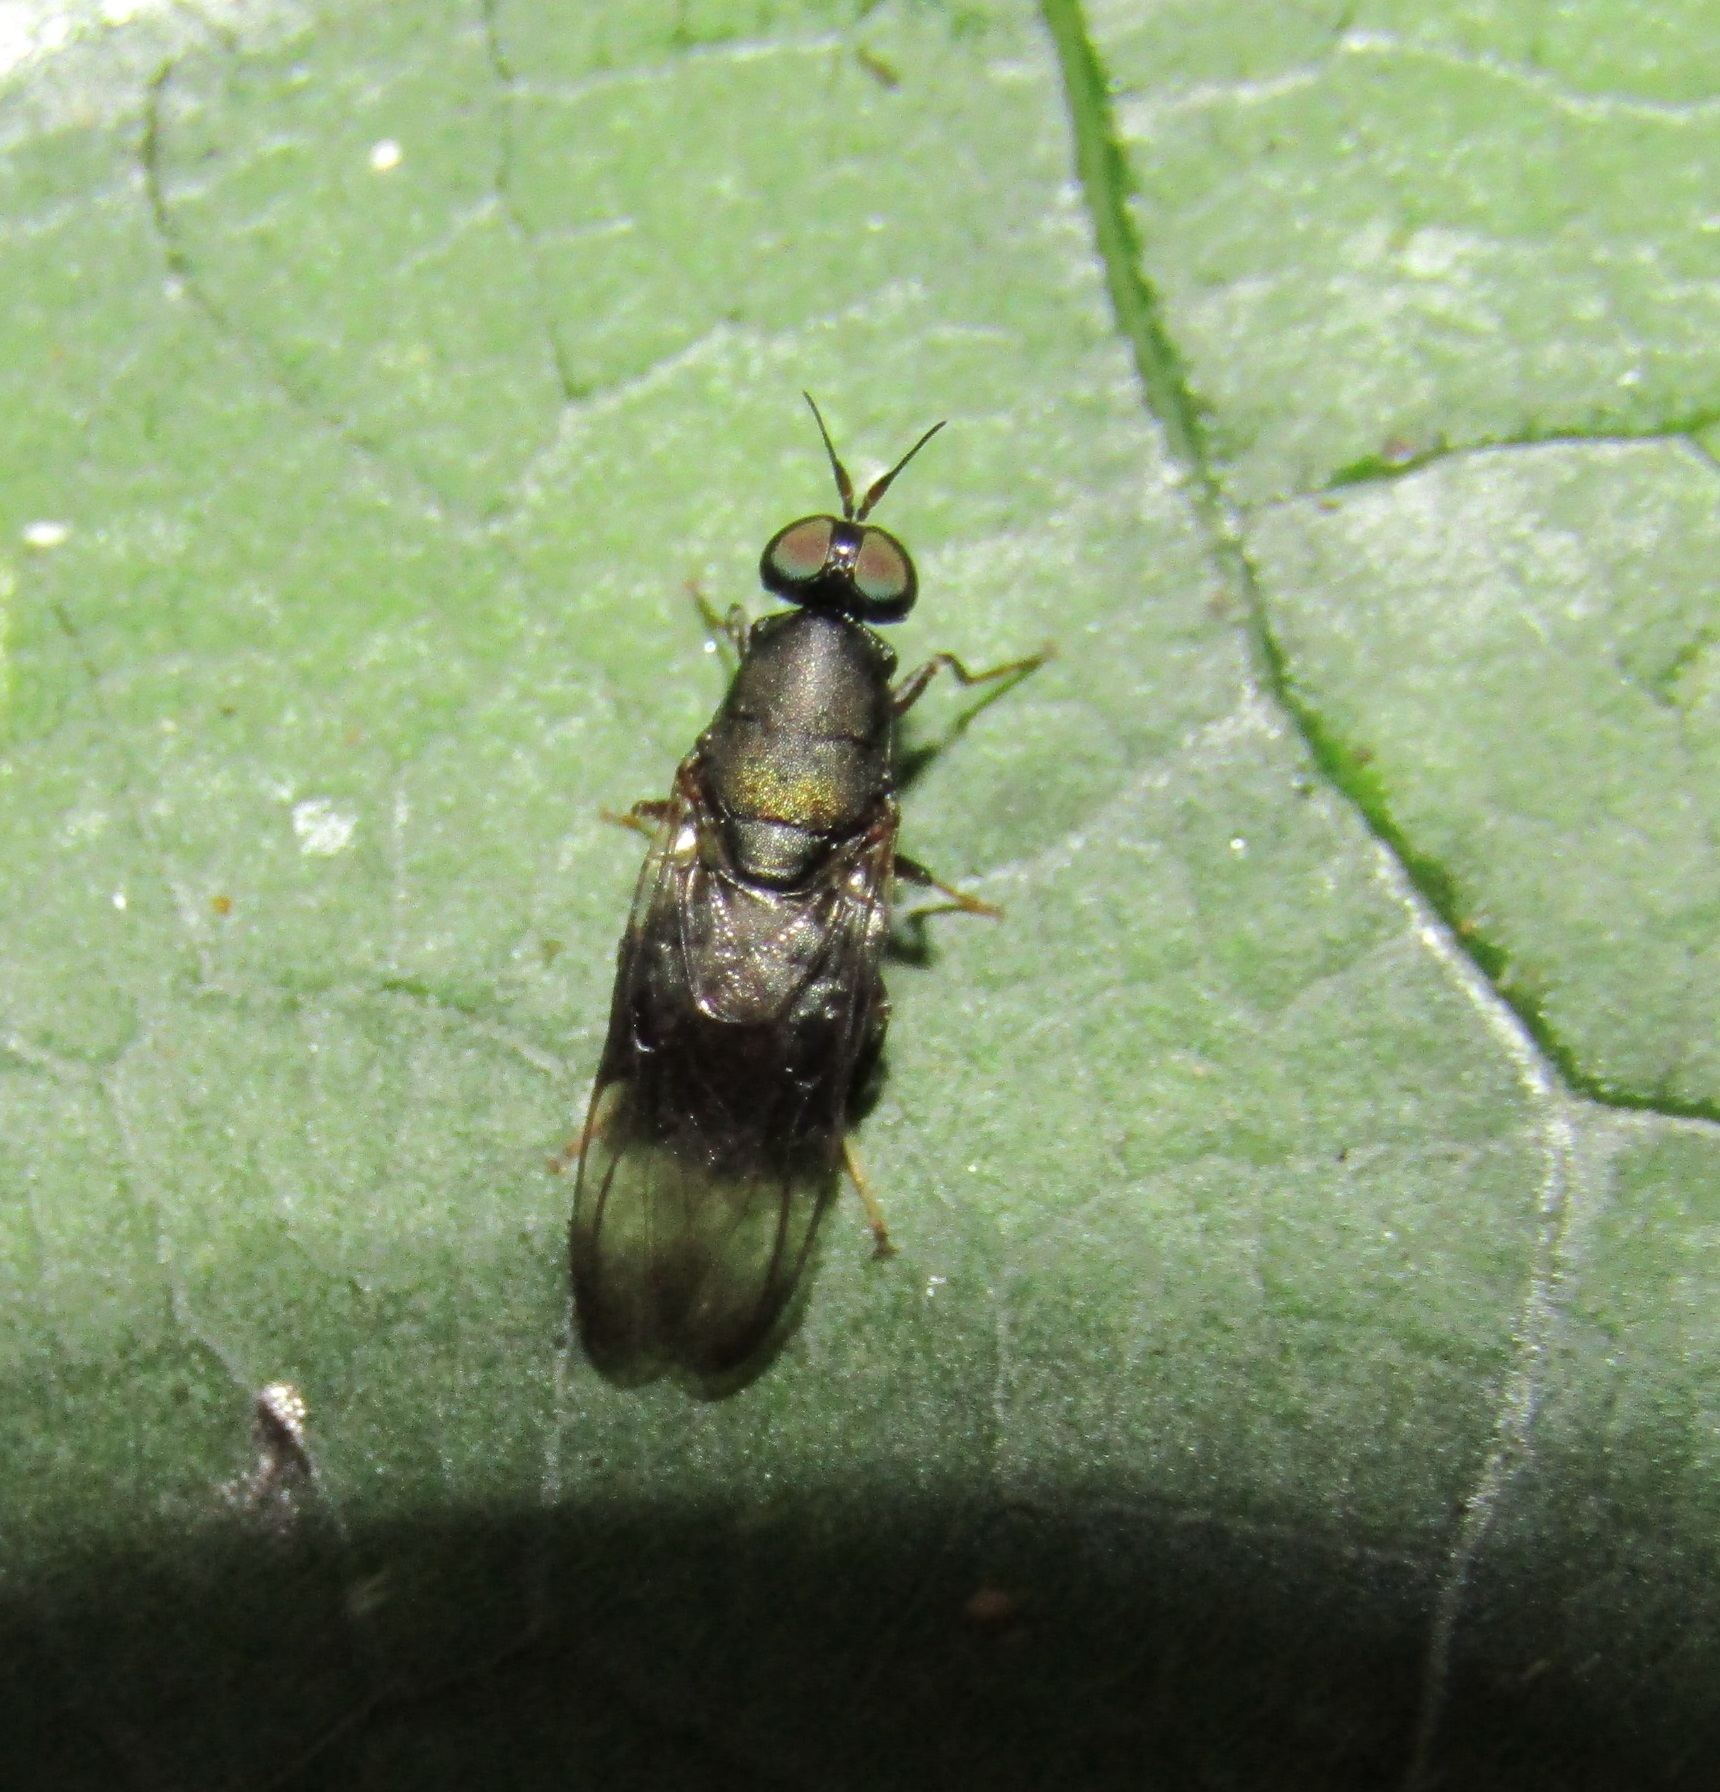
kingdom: Animalia
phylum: Arthropoda
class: Insecta
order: Diptera
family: Stratiomyidae
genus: Dysbiota
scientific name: Dysbiota peregrina
